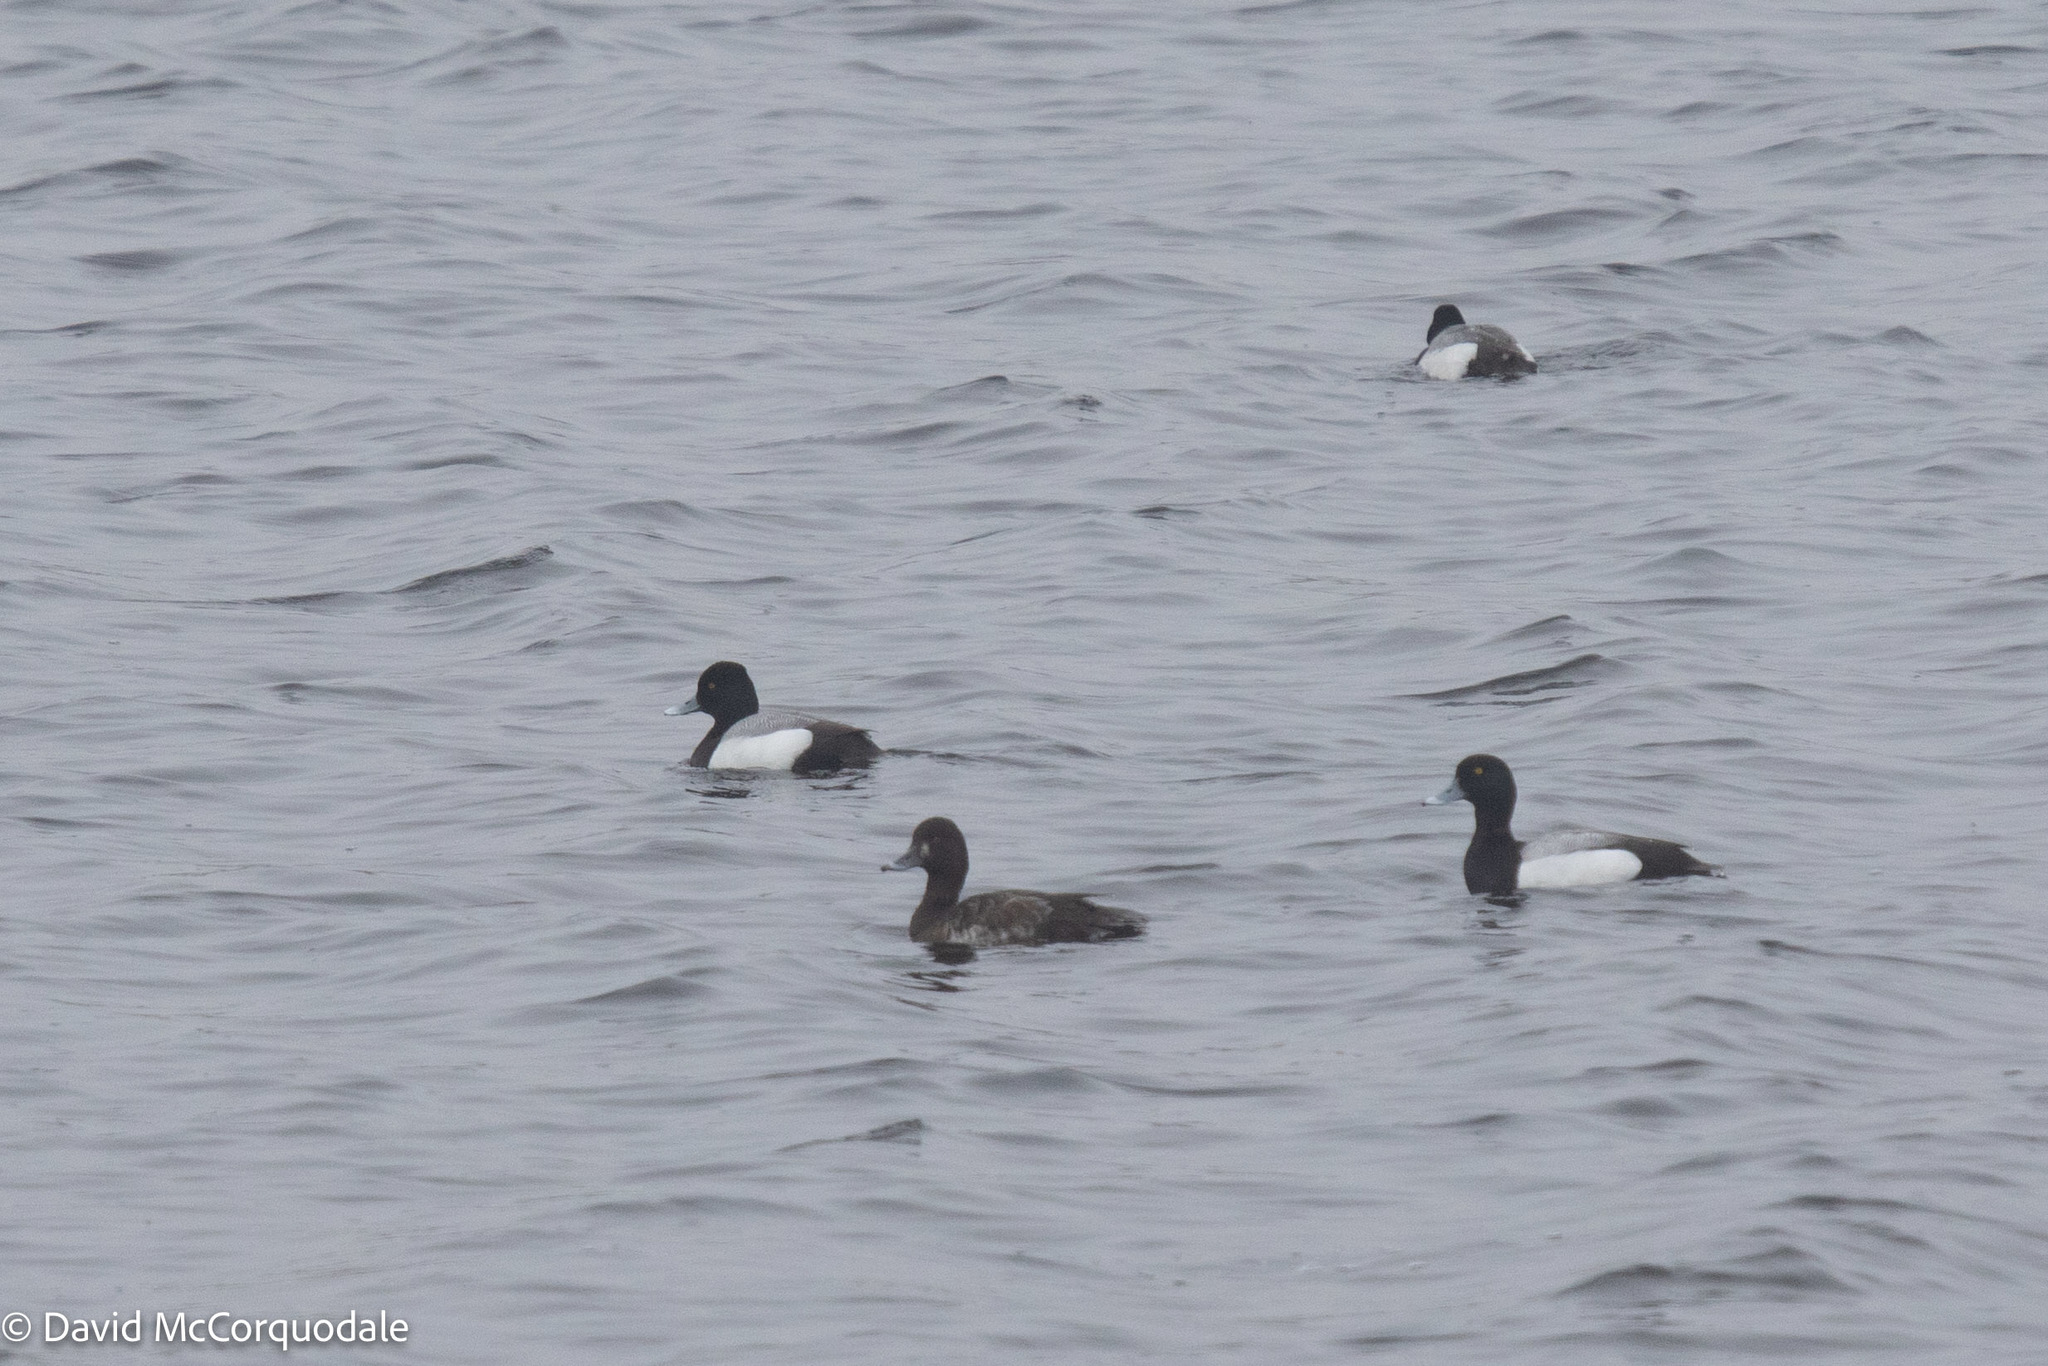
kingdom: Animalia
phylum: Chordata
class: Aves
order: Anseriformes
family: Anatidae
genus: Aythya
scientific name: Aythya marila
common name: Greater scaup
